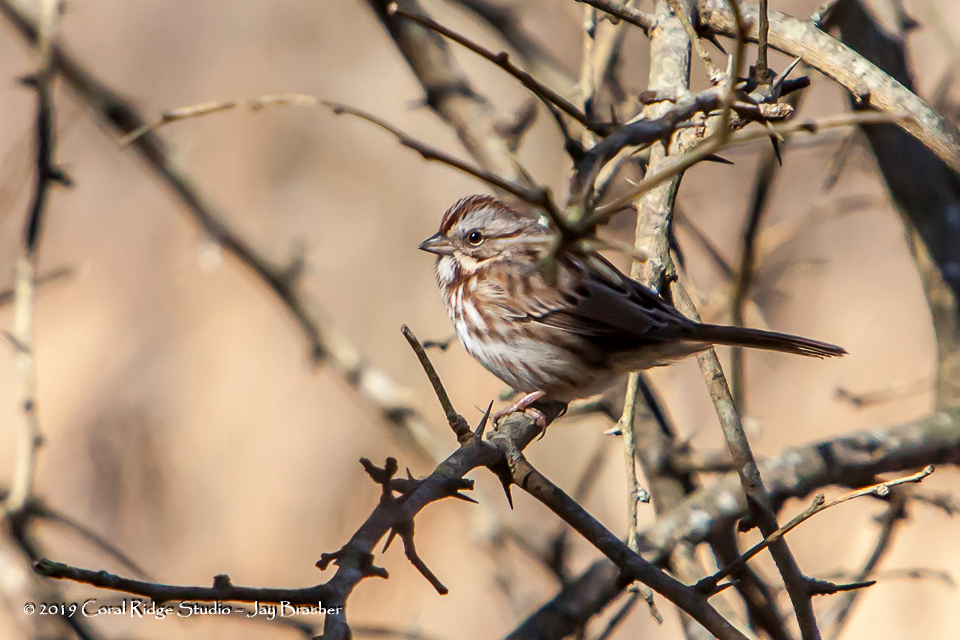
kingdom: Animalia
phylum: Chordata
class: Aves
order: Passeriformes
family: Passerellidae
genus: Melospiza
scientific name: Melospiza melodia
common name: Song sparrow
